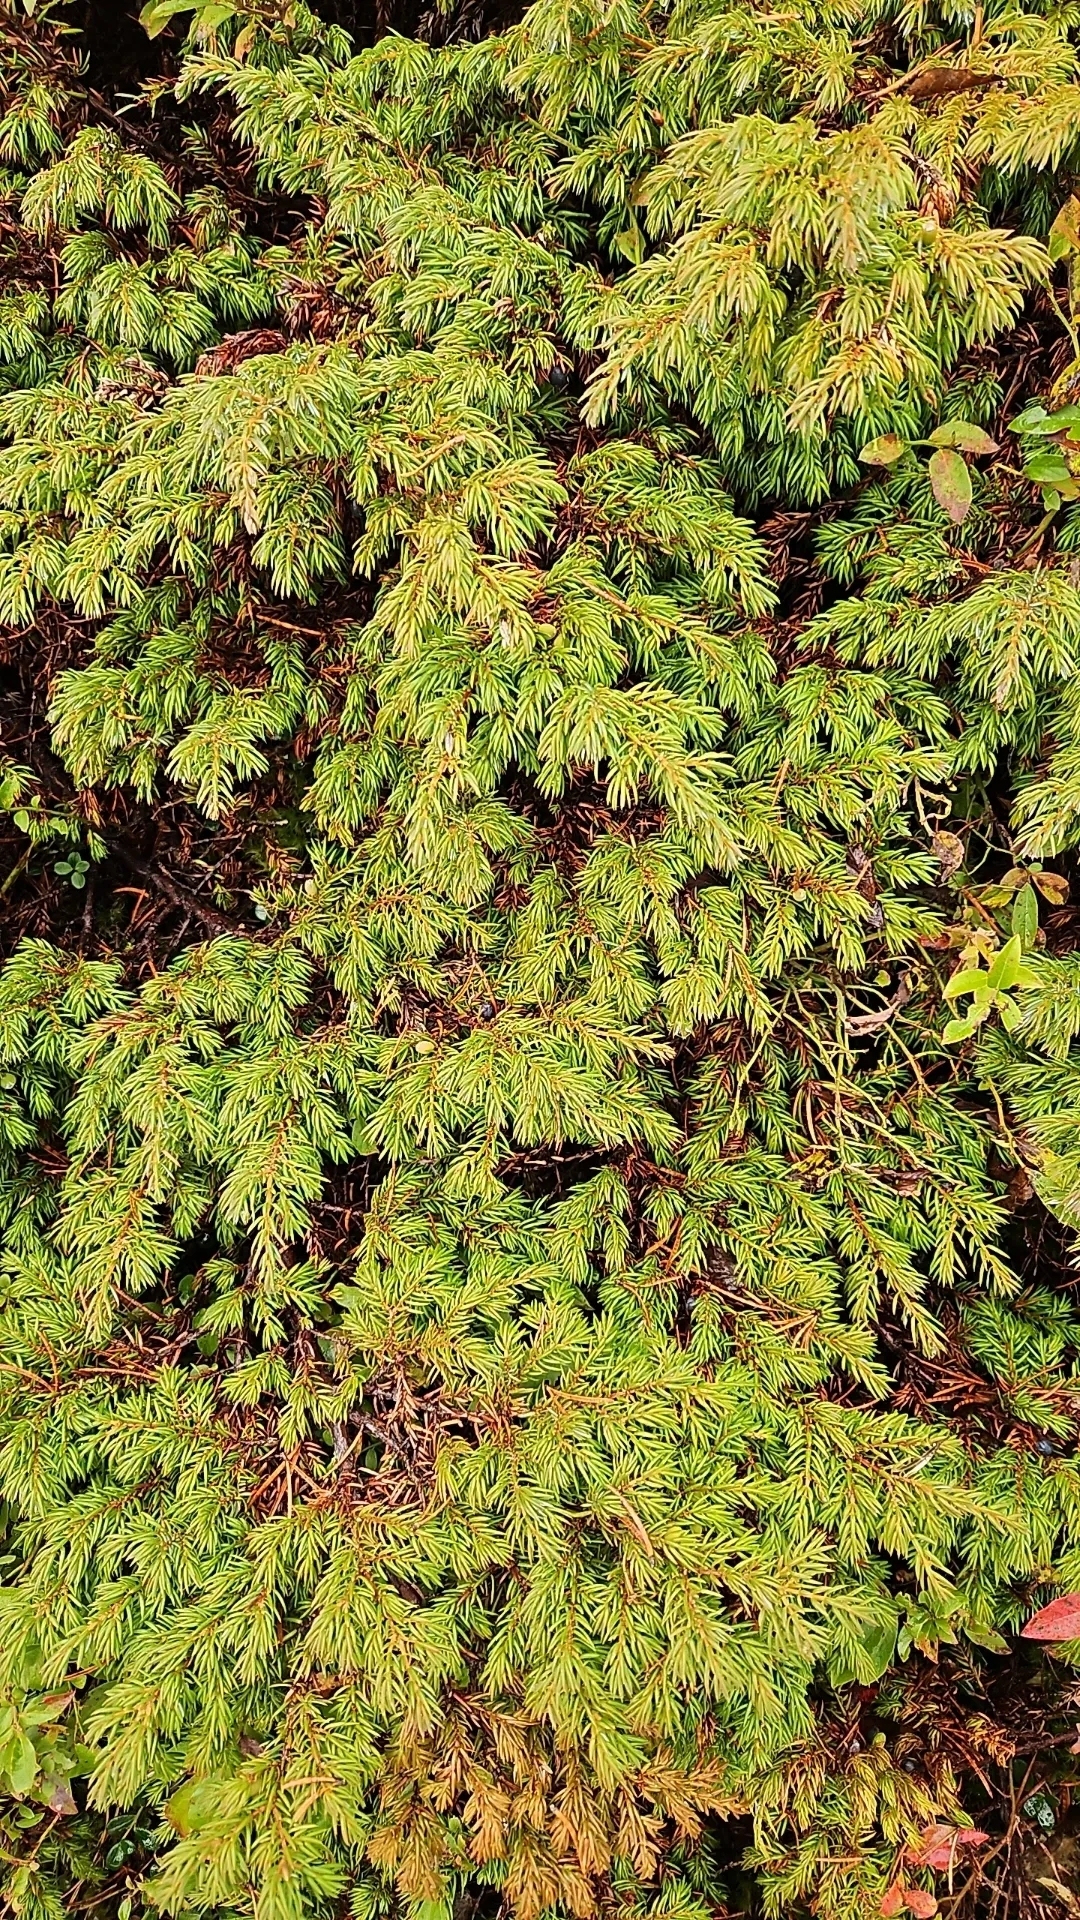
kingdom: Plantae
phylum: Tracheophyta
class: Pinopsida
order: Pinales
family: Cupressaceae
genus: Juniperus
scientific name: Juniperus communis
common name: Common juniper
